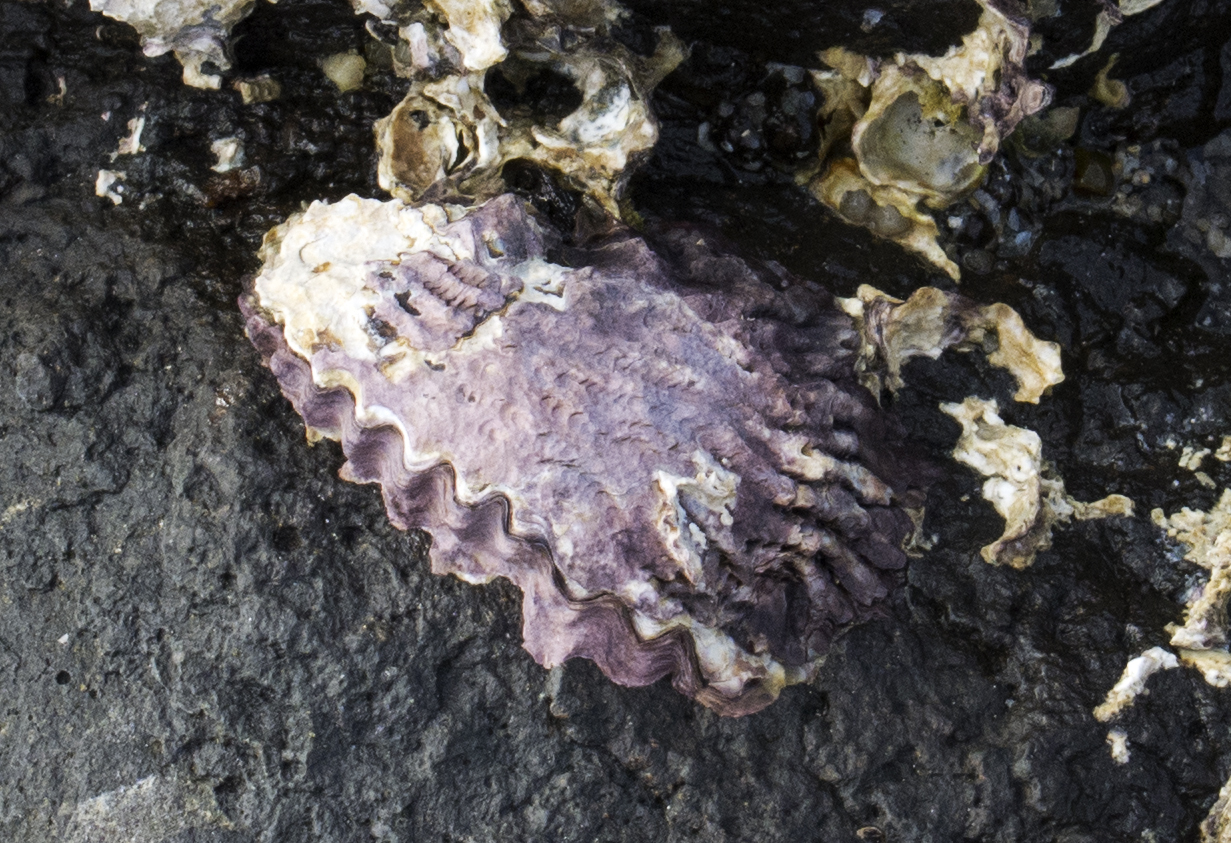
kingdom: Animalia
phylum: Mollusca
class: Bivalvia
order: Ostreida
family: Ostreidae
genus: Saccostrea
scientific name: Saccostrea scyphophilla
